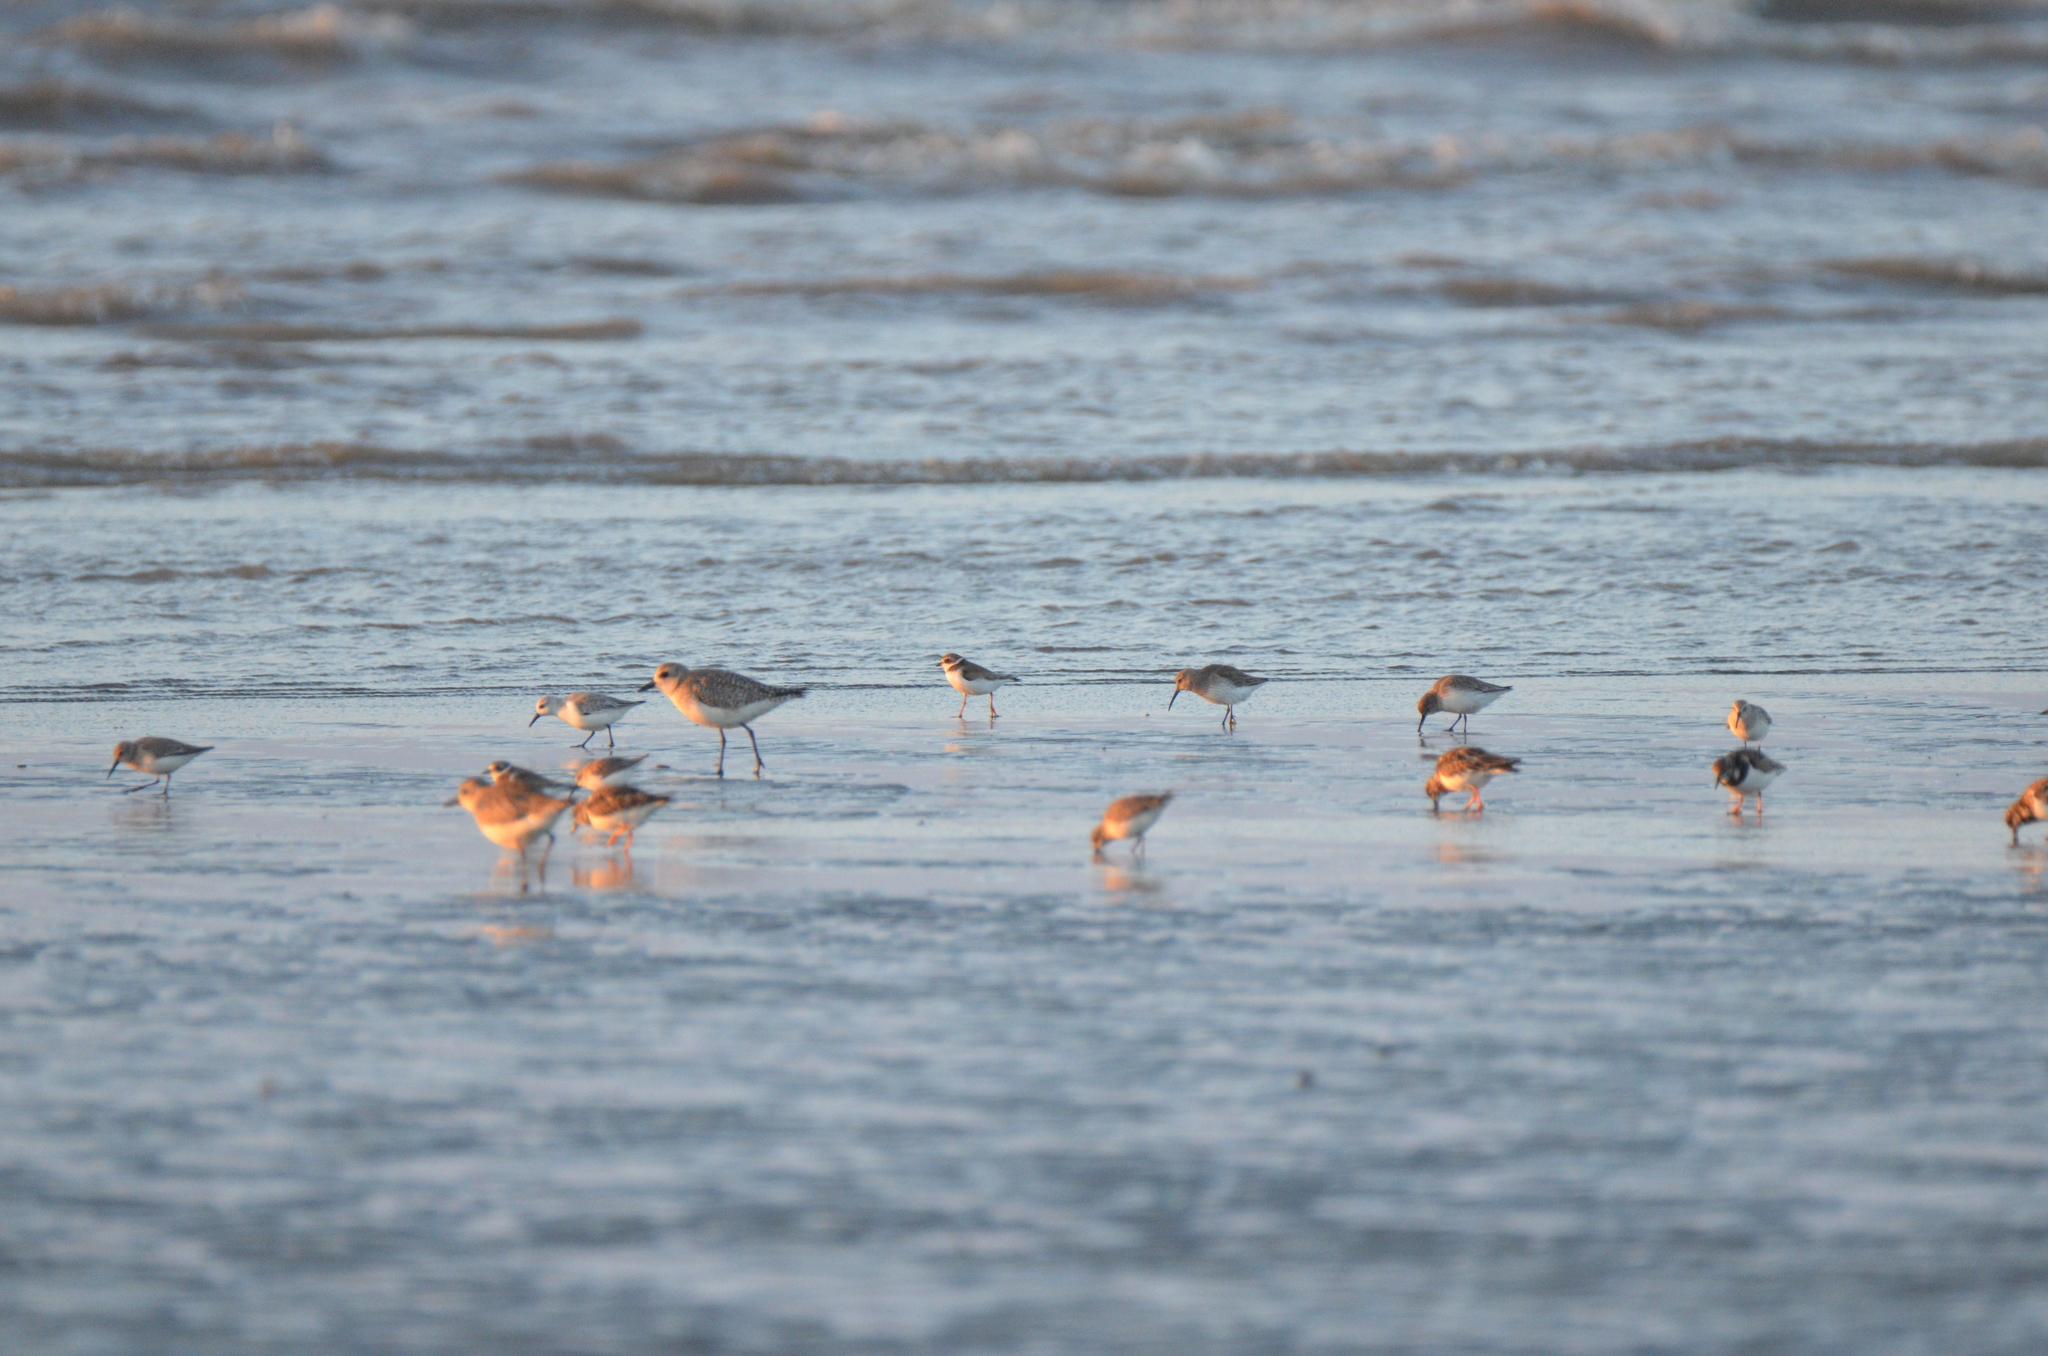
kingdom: Animalia
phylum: Chordata
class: Aves
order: Charadriiformes
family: Charadriidae
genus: Charadrius
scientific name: Charadrius semipalmatus
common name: Semipalmated plover
